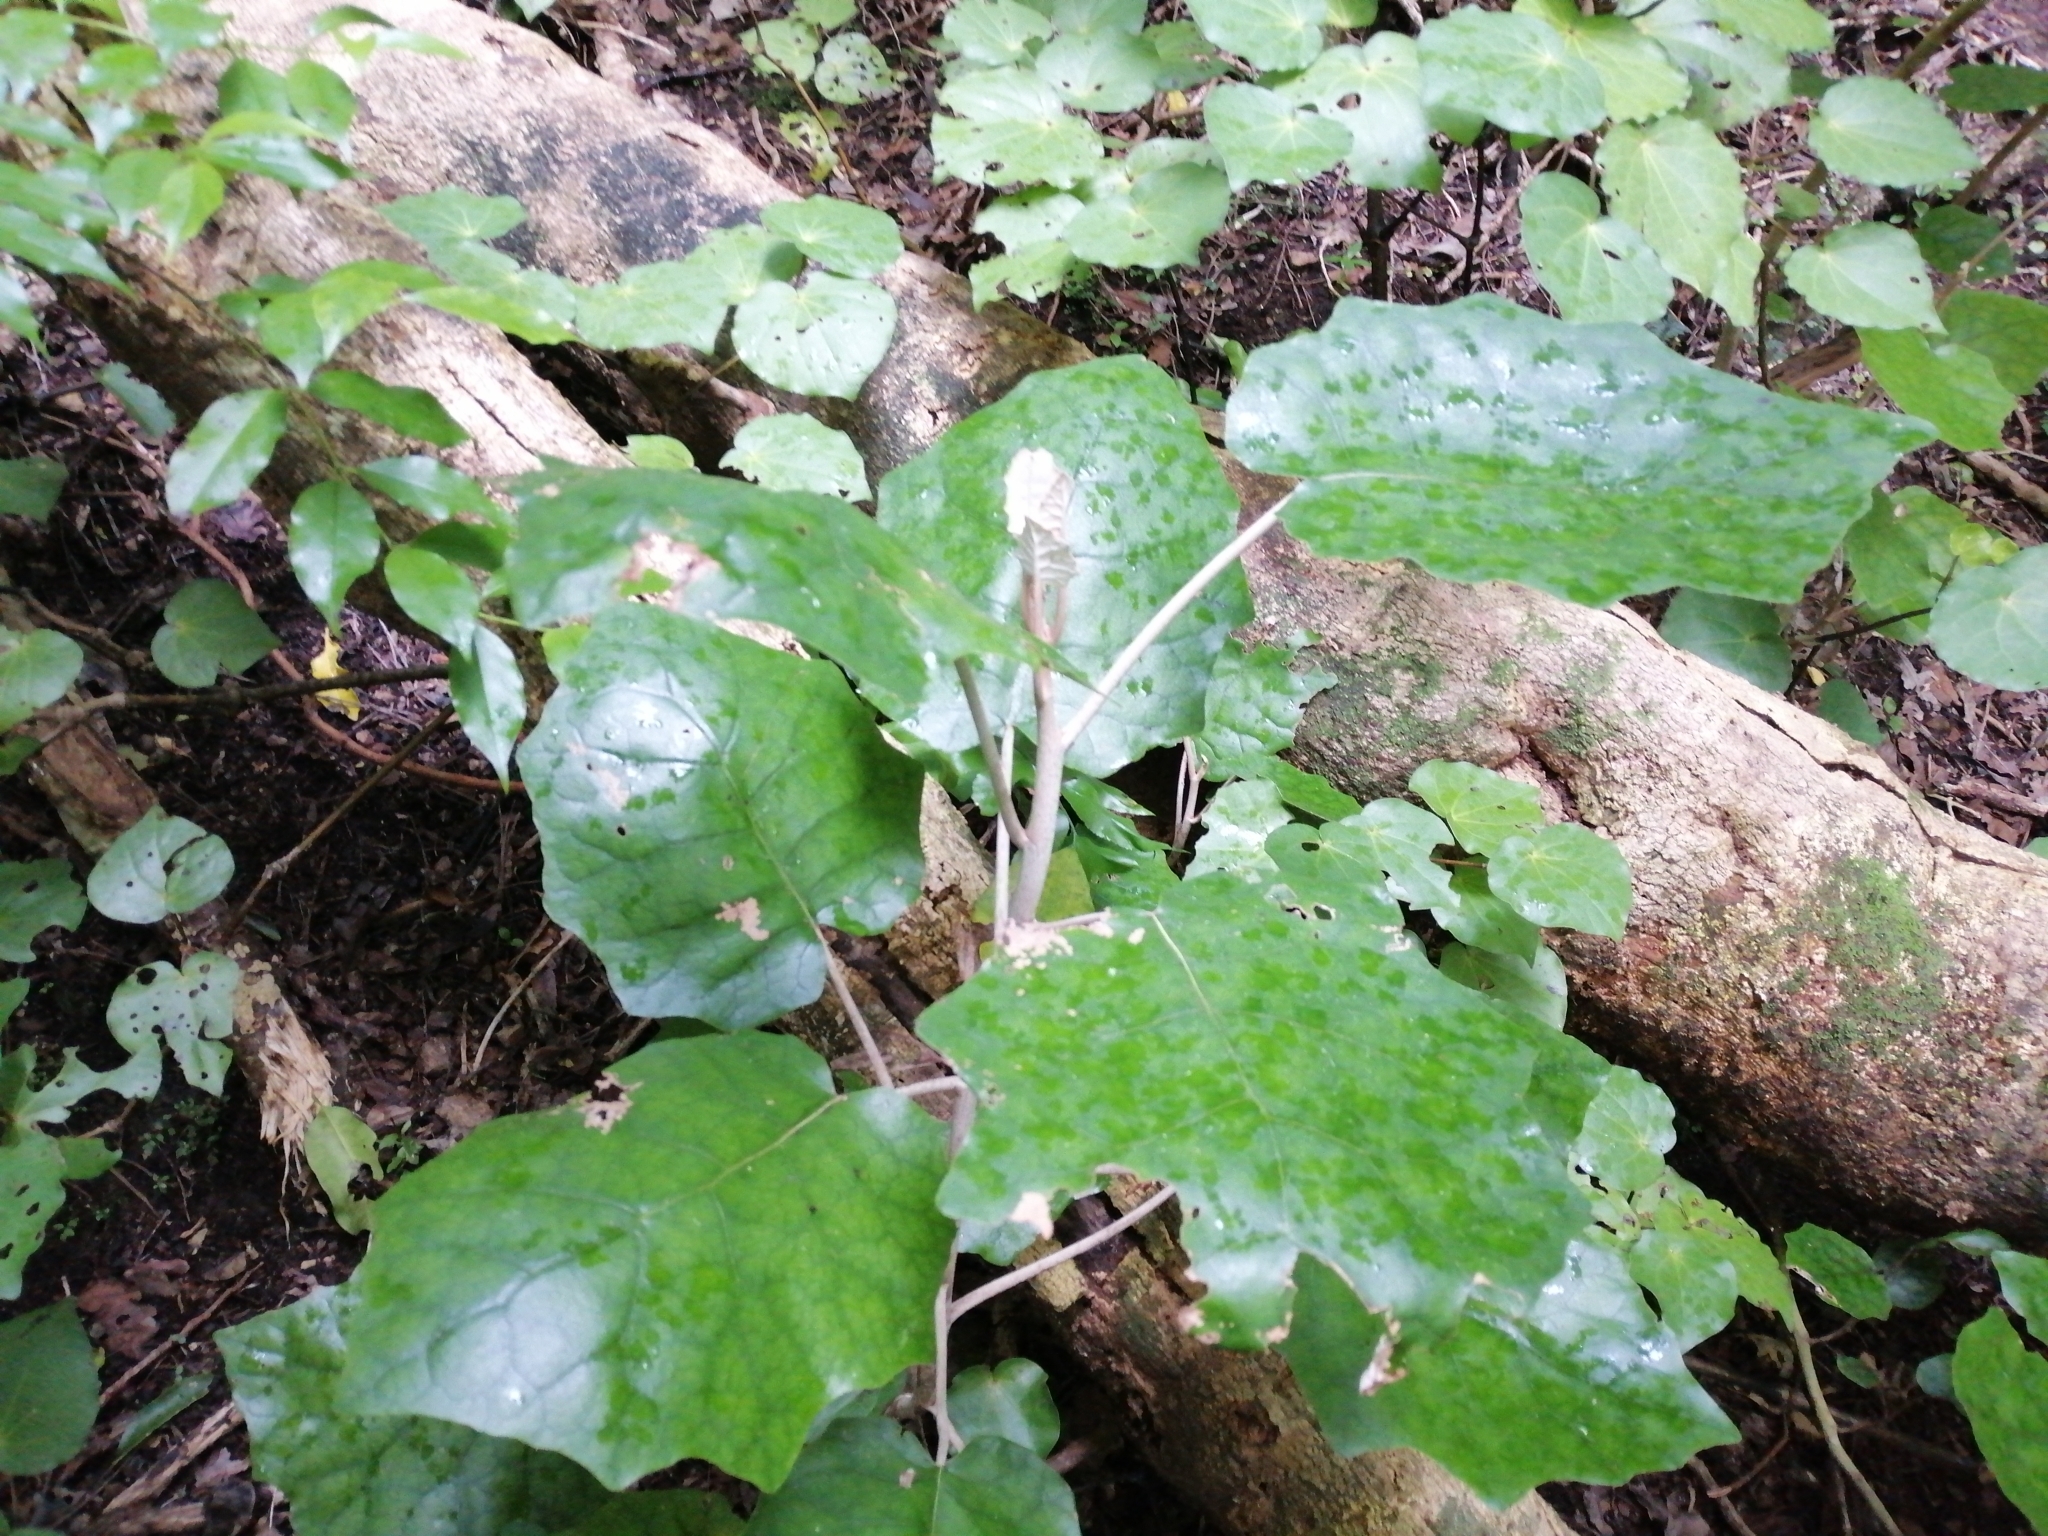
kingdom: Plantae
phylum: Tracheophyta
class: Magnoliopsida
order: Asterales
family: Asteraceae
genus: Brachyglottis
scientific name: Brachyglottis repanda
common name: Hedge ragwort
